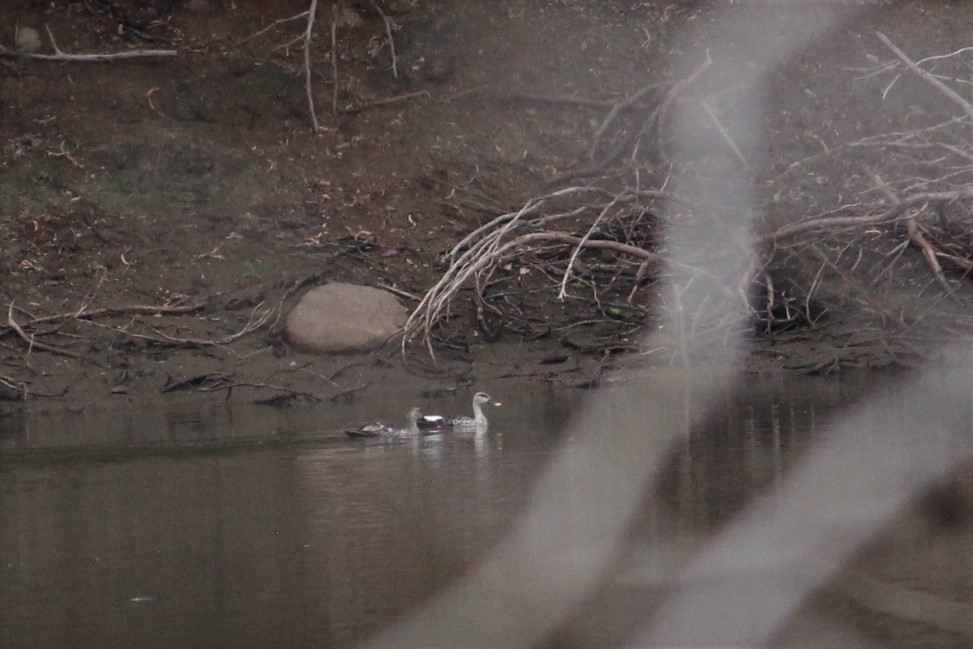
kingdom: Animalia
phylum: Chordata
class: Aves
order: Anseriformes
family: Anatidae
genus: Anas
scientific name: Anas poecilorhyncha
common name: Indian spot-billed duck
